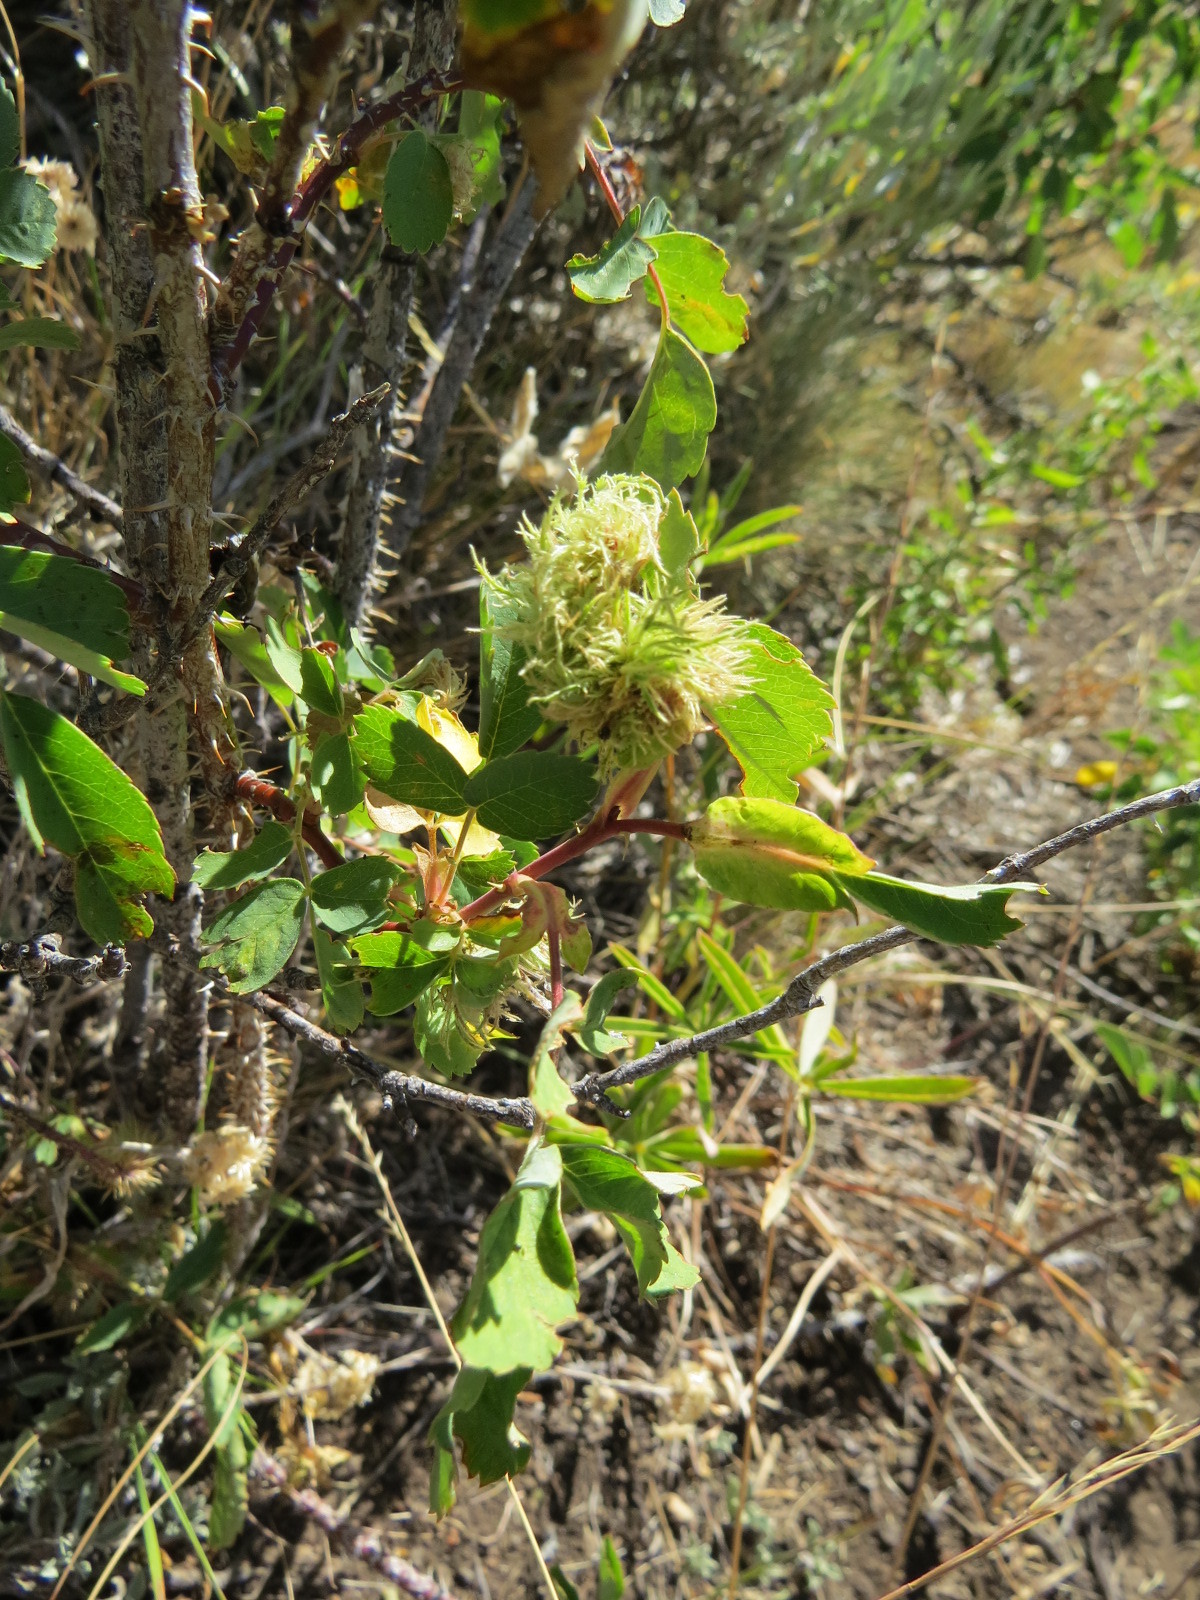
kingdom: Animalia
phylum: Arthropoda
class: Insecta
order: Hymenoptera
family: Cynipidae
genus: Diplolepis
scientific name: Diplolepis rosae
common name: Bedeguar gall
